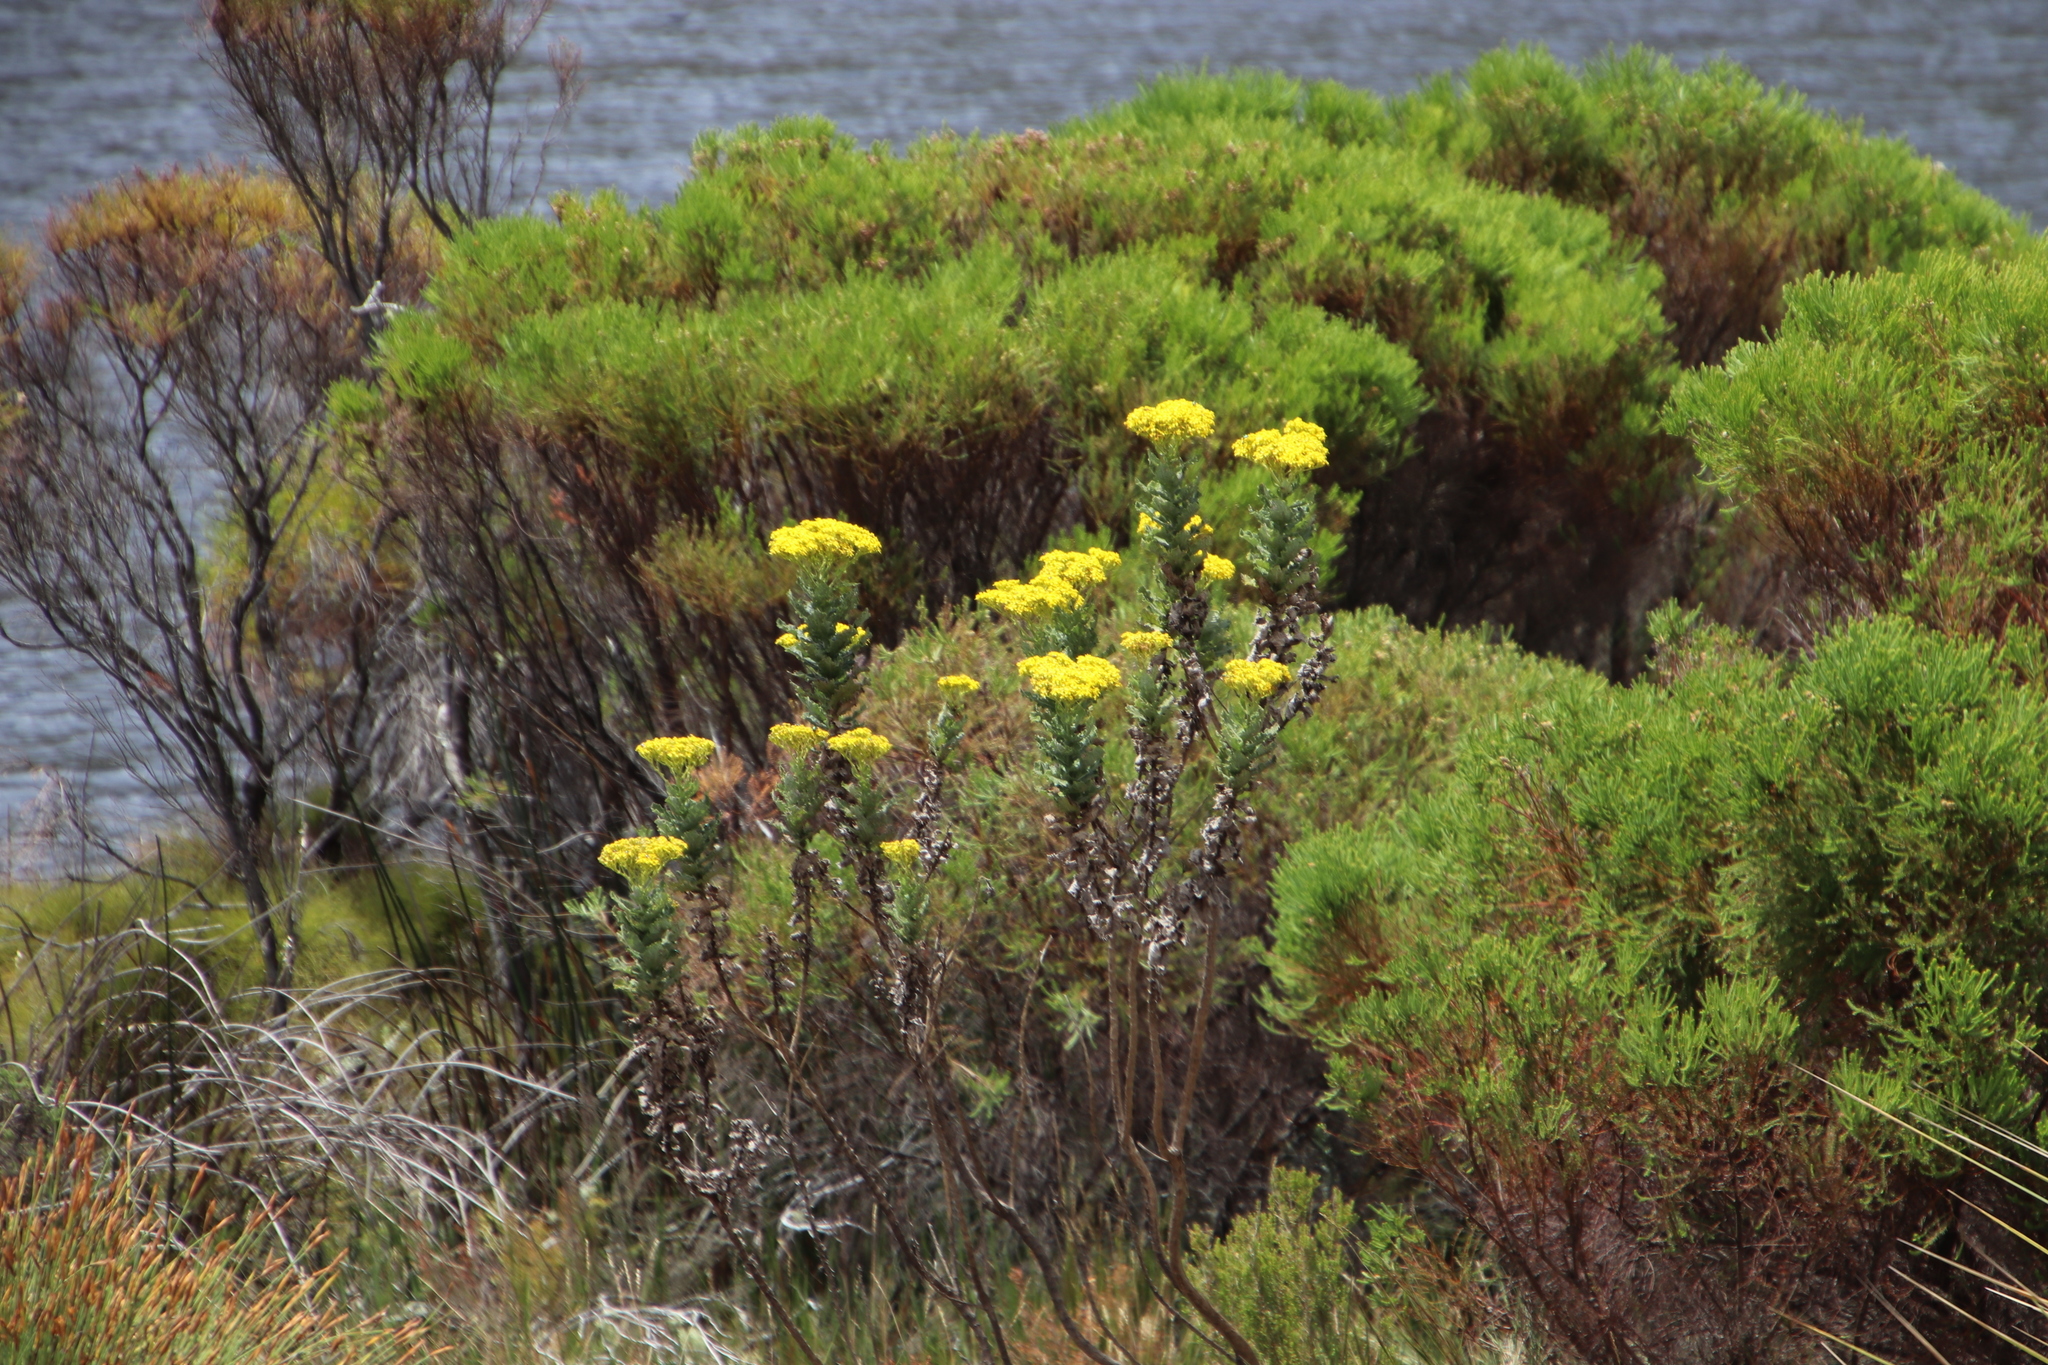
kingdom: Plantae
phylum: Tracheophyta
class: Magnoliopsida
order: Asterales
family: Asteraceae
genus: Senecio
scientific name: Senecio rigidus
